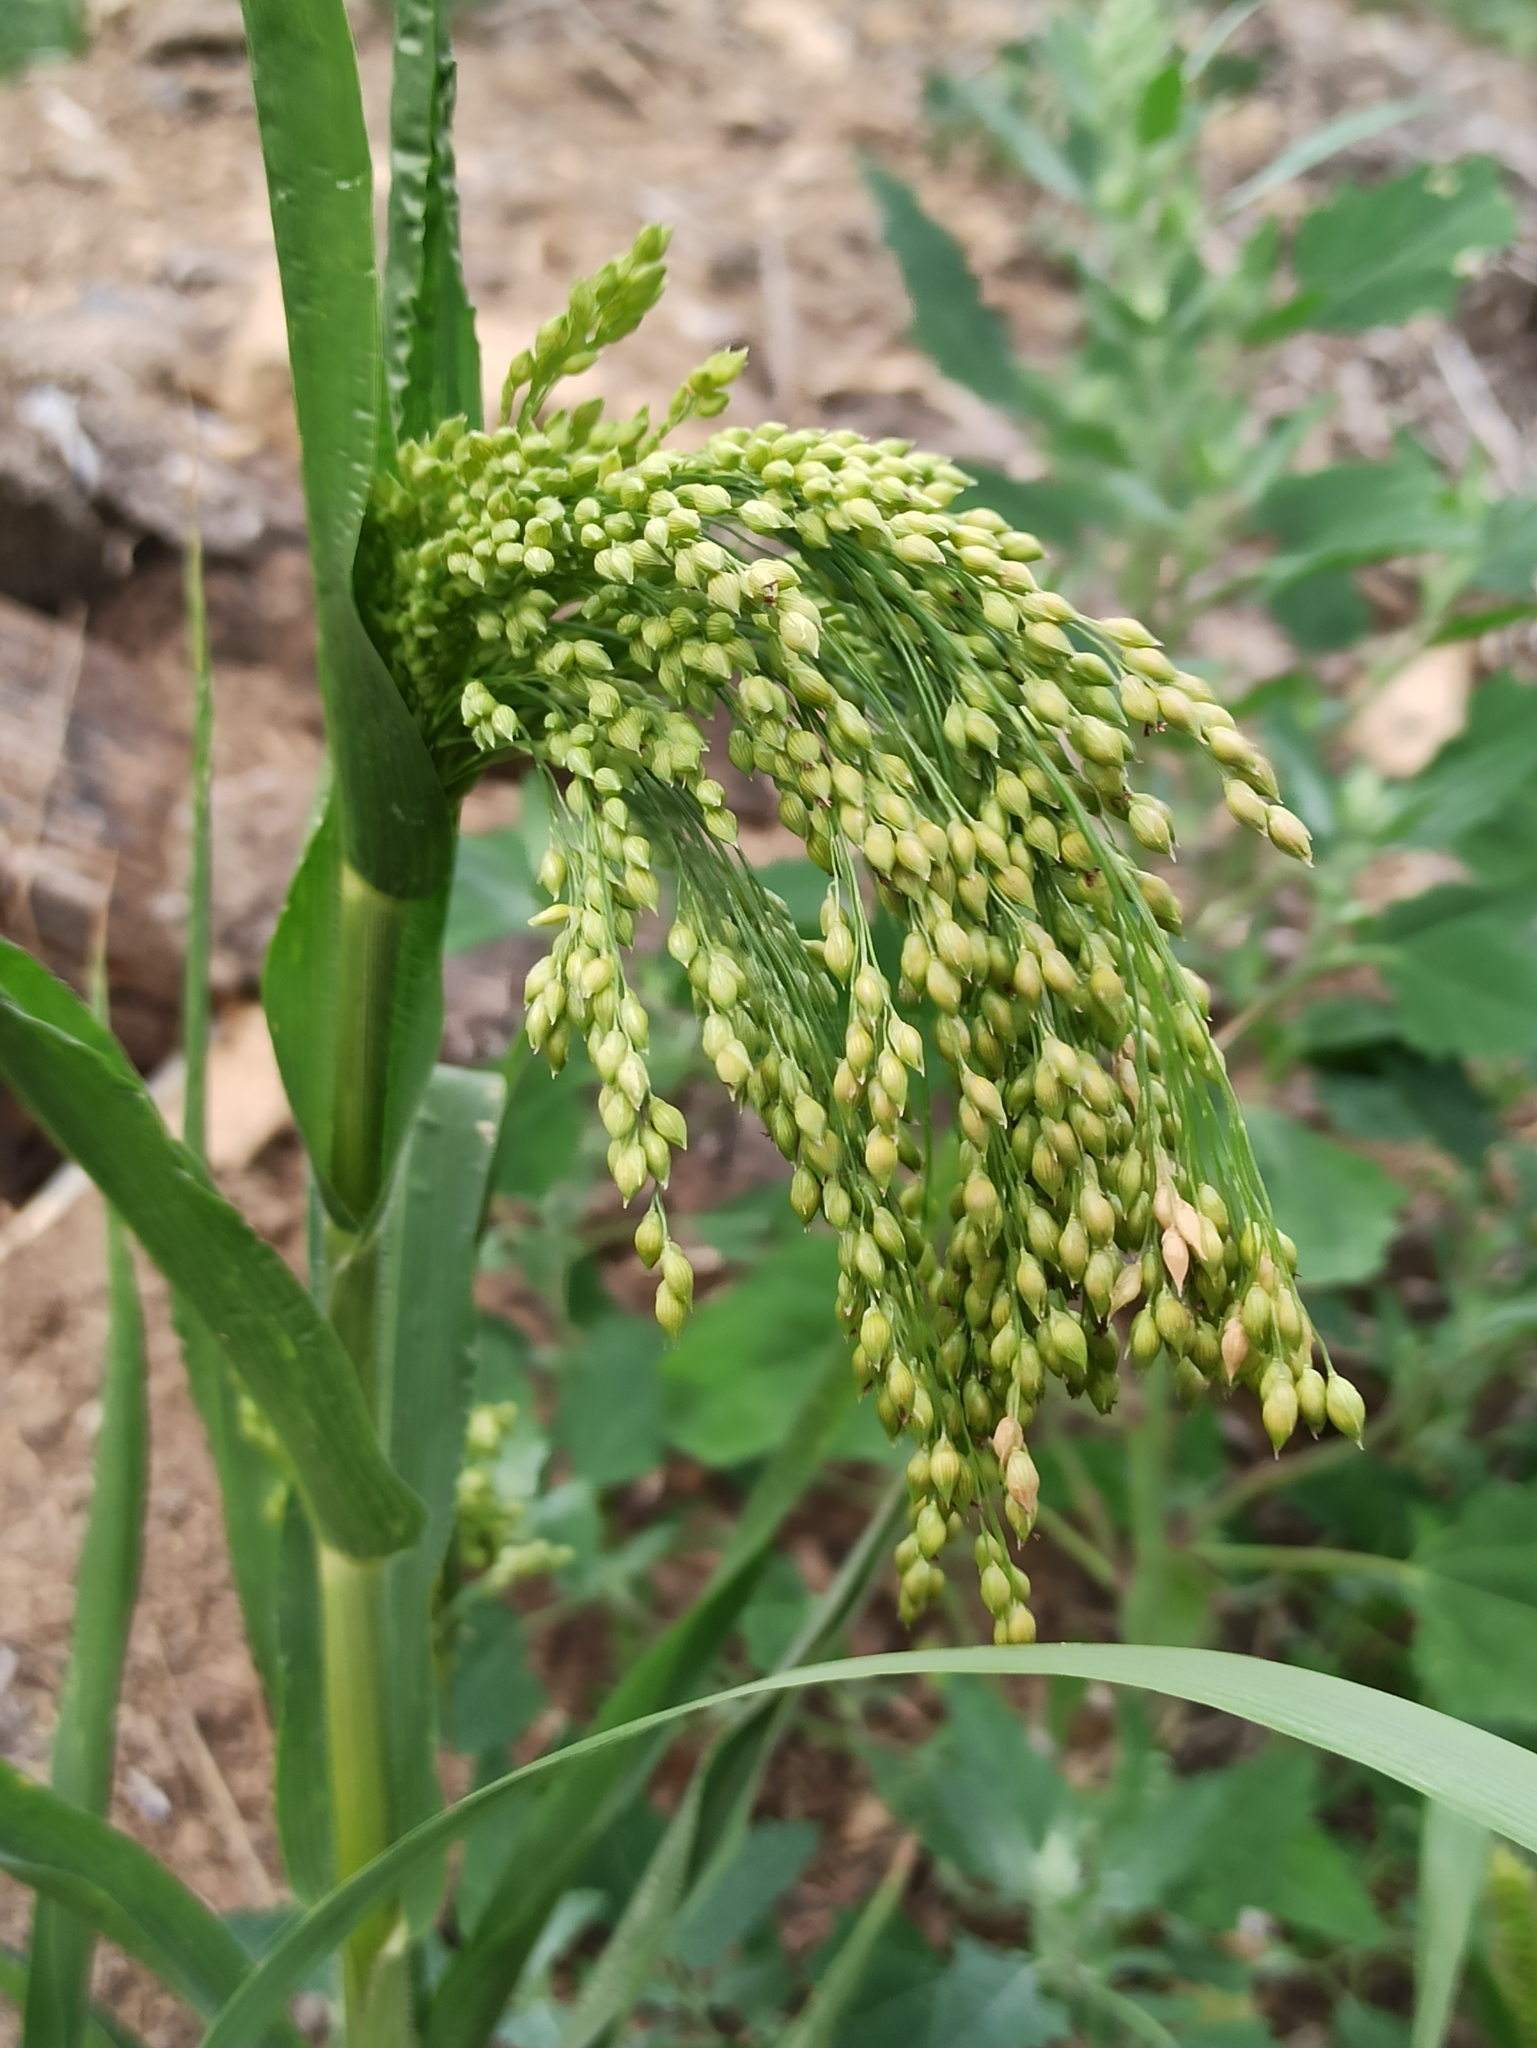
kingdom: Plantae
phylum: Tracheophyta
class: Liliopsida
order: Poales
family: Poaceae
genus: Panicum
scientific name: Panicum miliaceum
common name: Common millet
